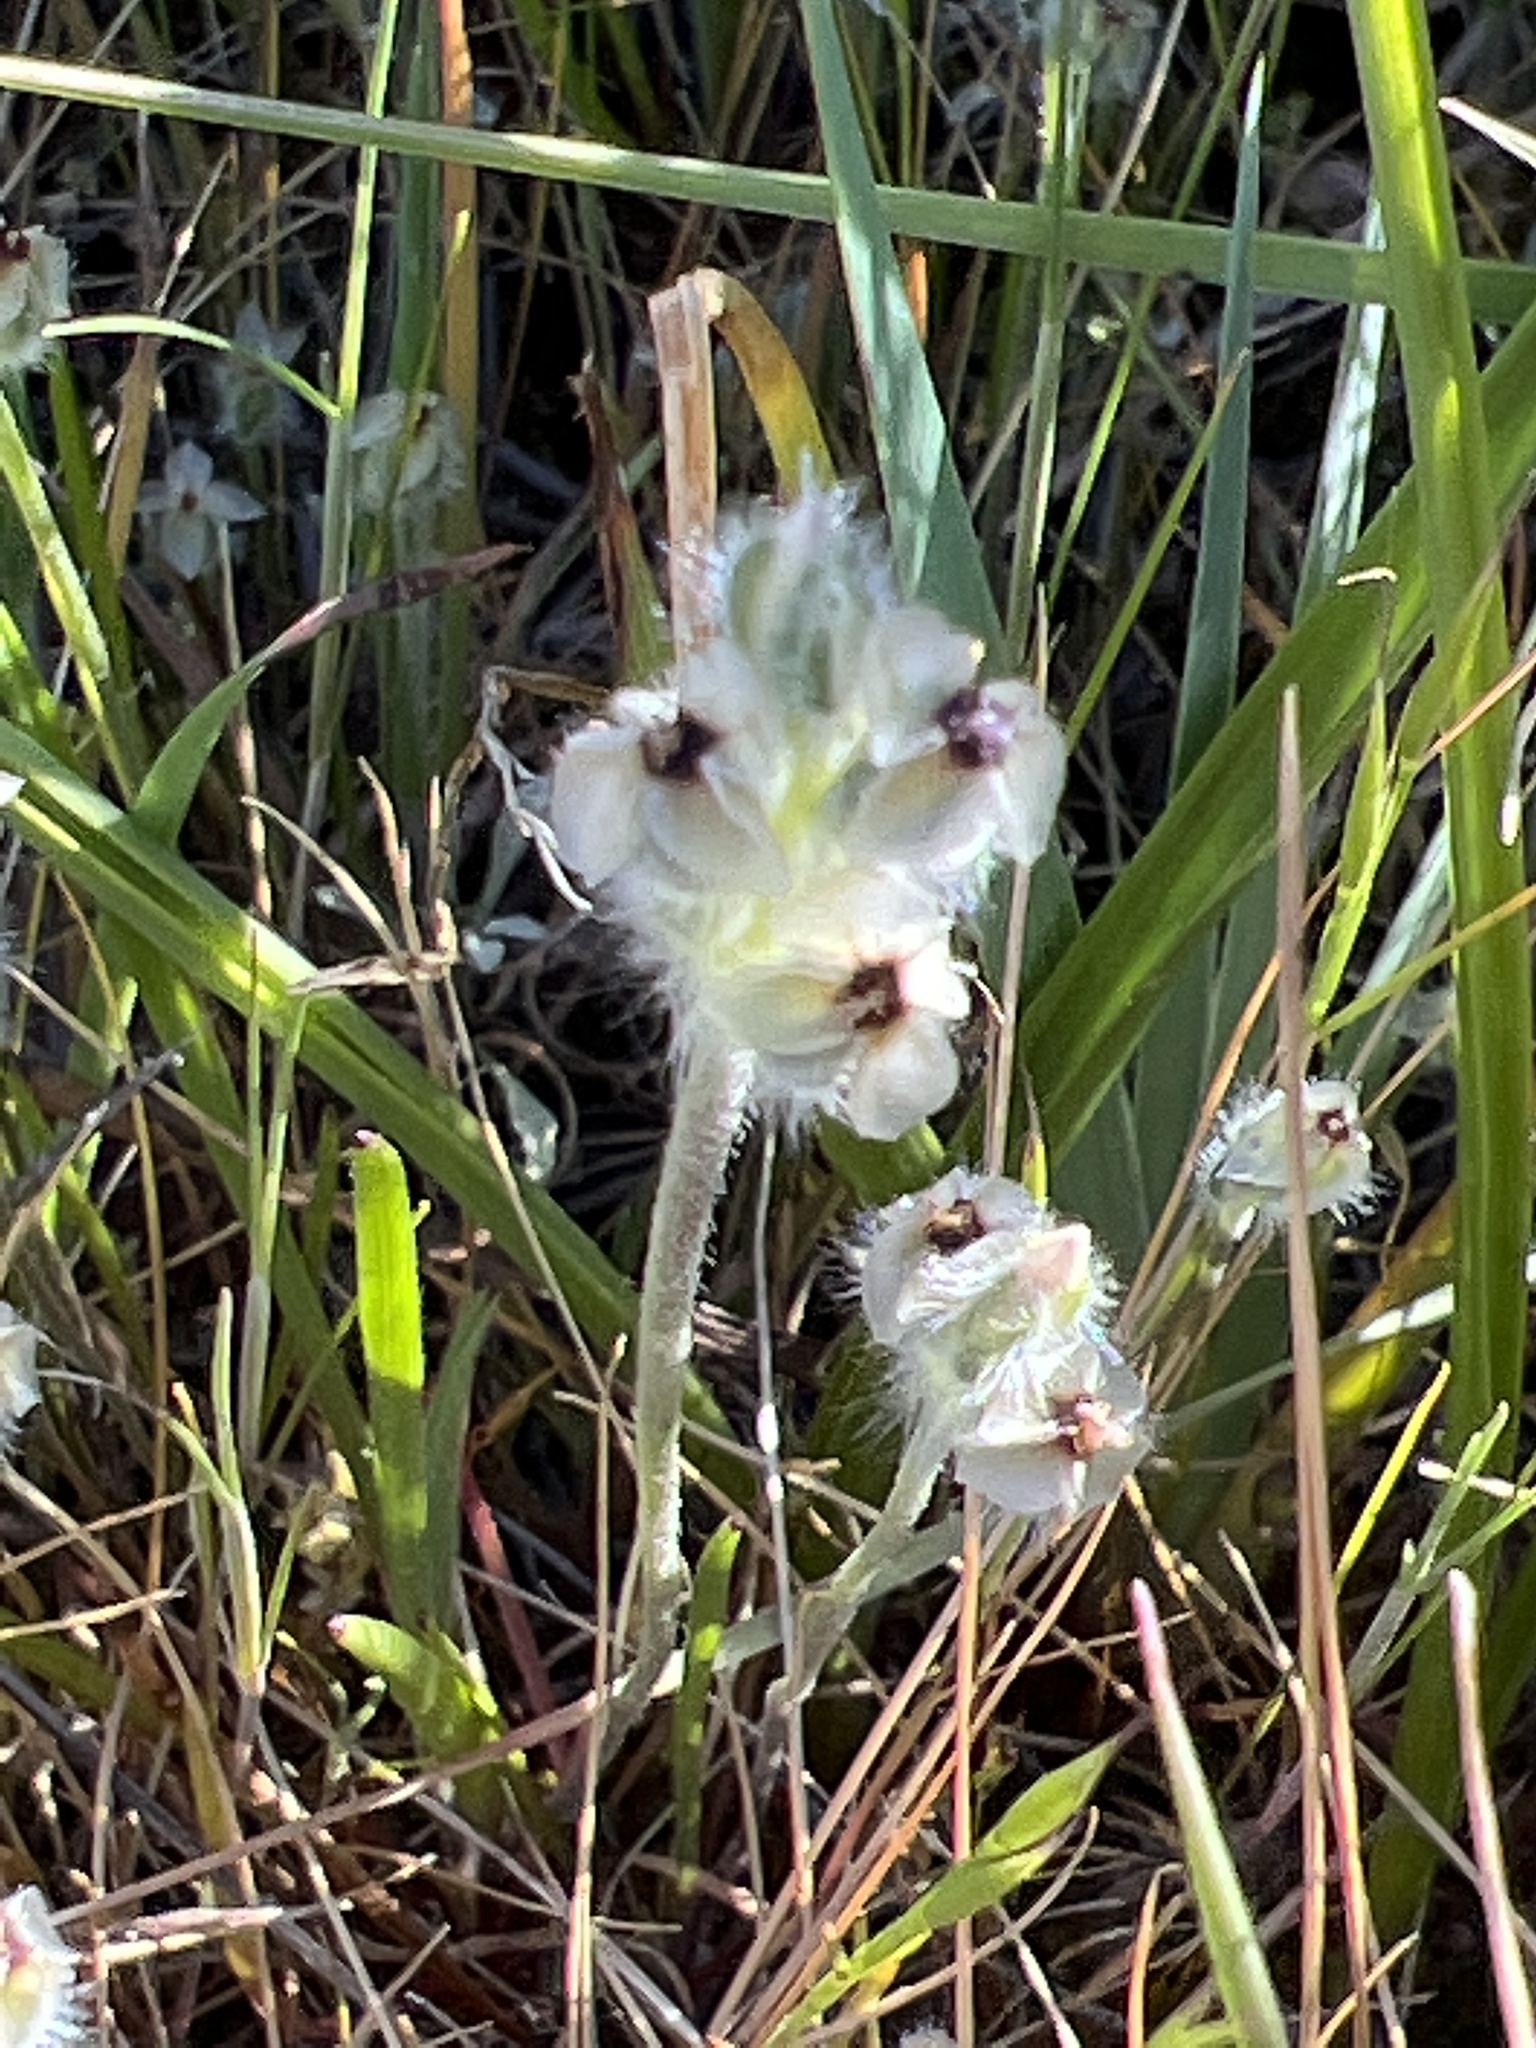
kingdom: Plantae
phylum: Tracheophyta
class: Magnoliopsida
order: Lamiales
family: Plantaginaceae
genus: Plantago
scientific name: Plantago erecta
